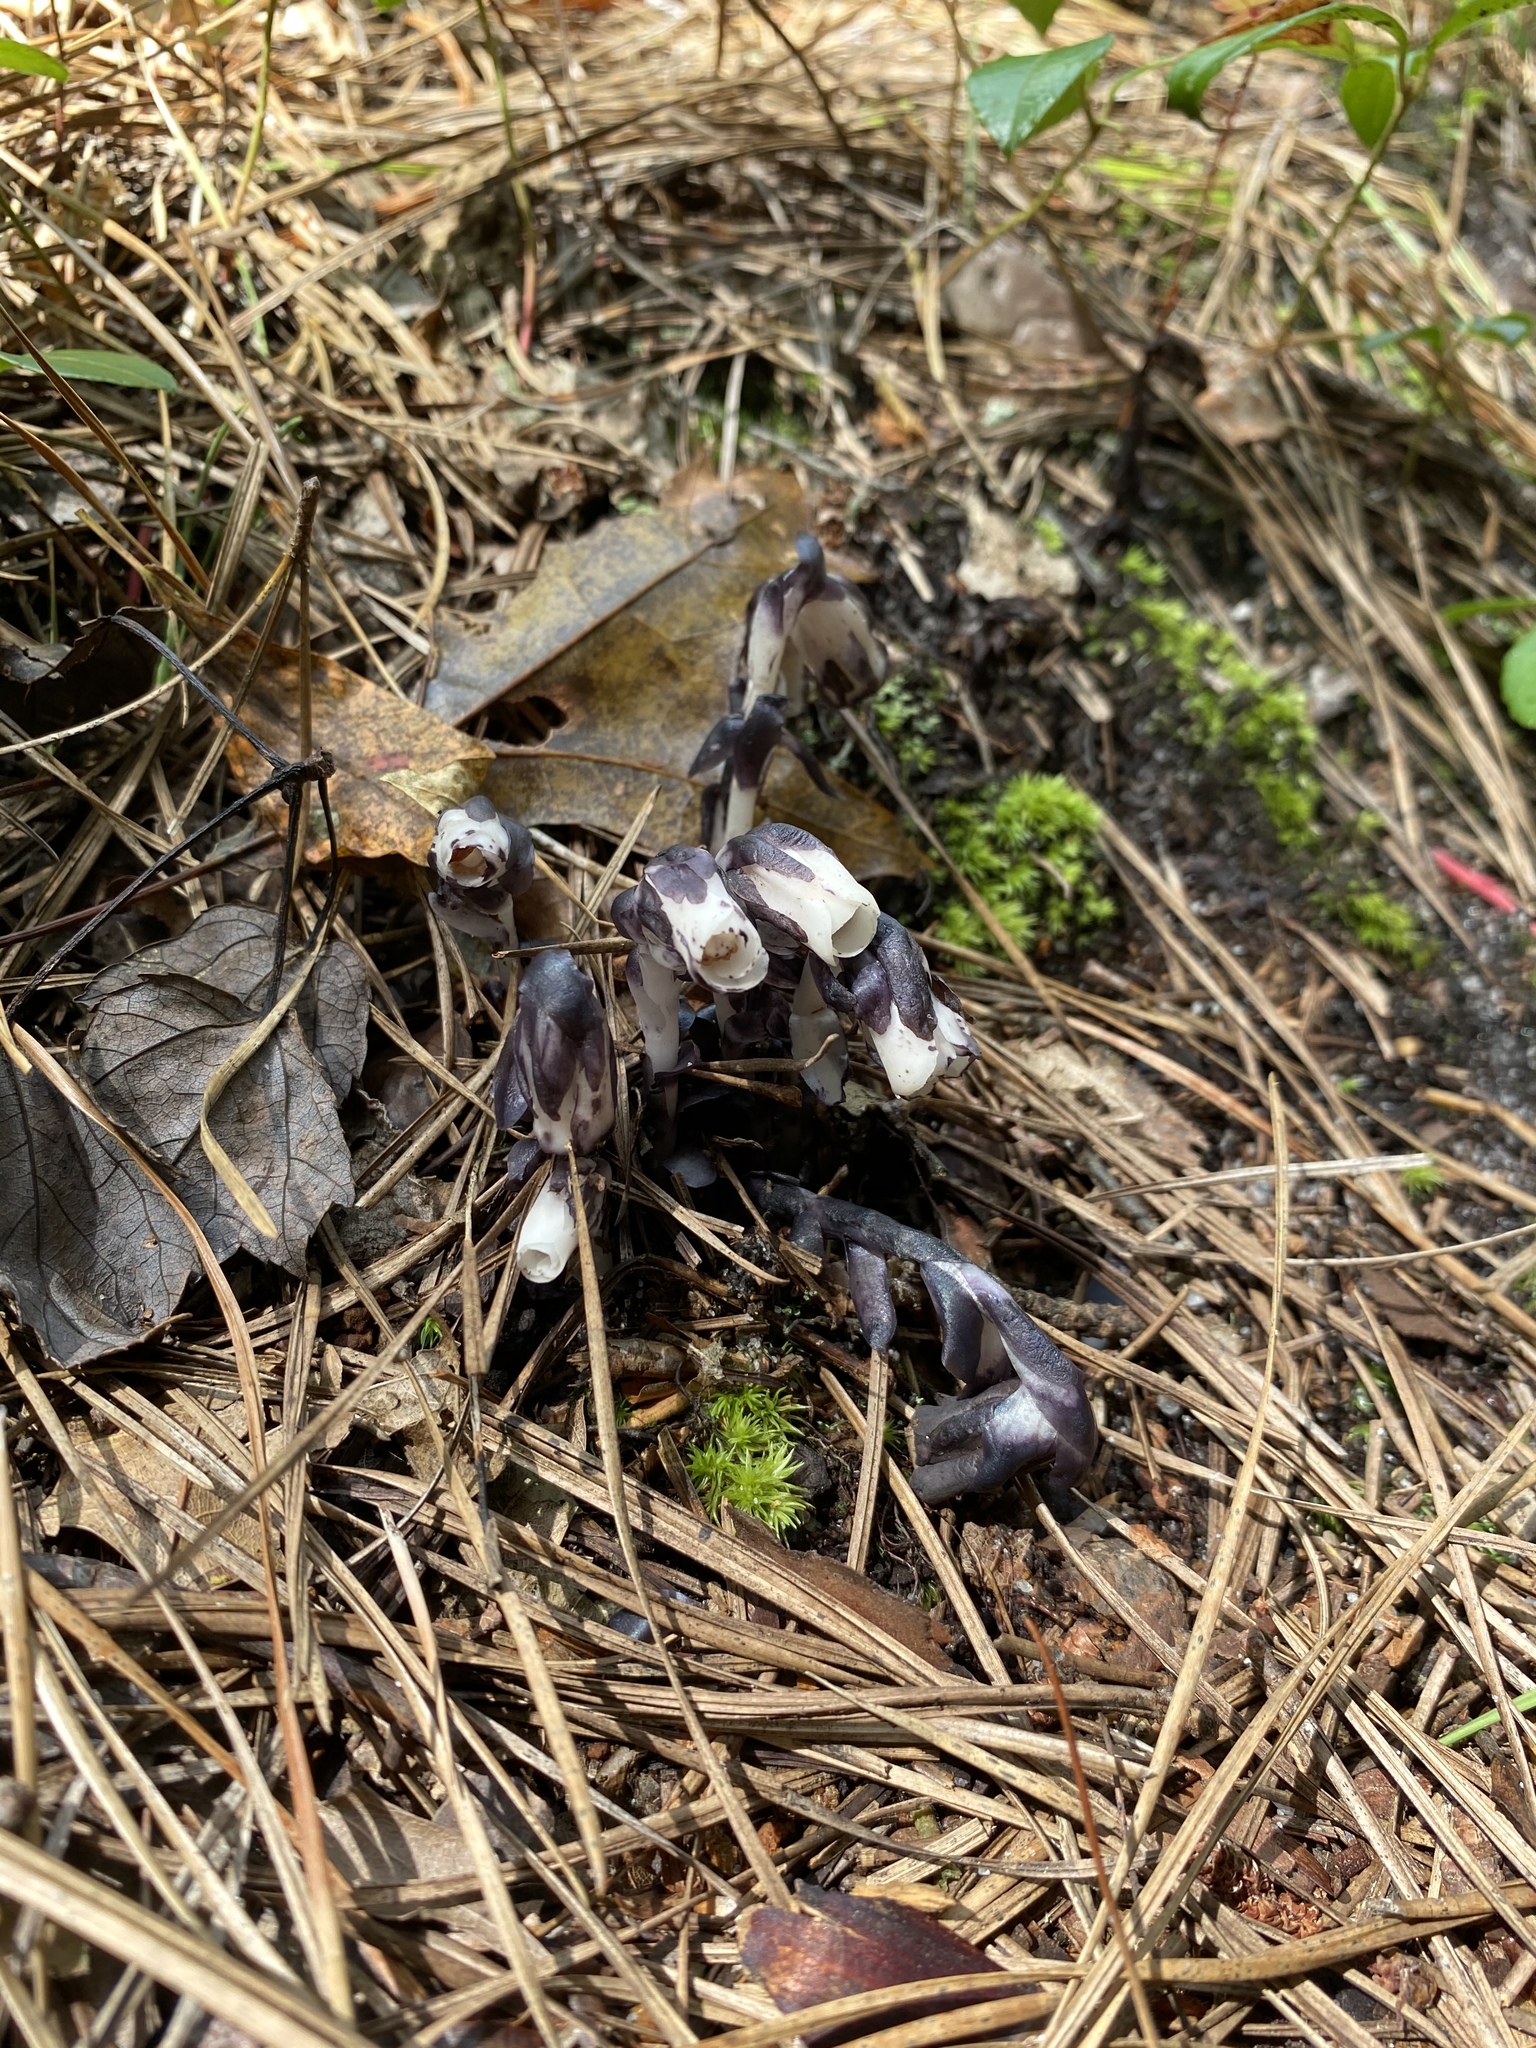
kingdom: Plantae
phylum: Tracheophyta
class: Magnoliopsida
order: Ericales
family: Ericaceae
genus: Monotropa
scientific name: Monotropa uniflora
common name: Convulsion root
